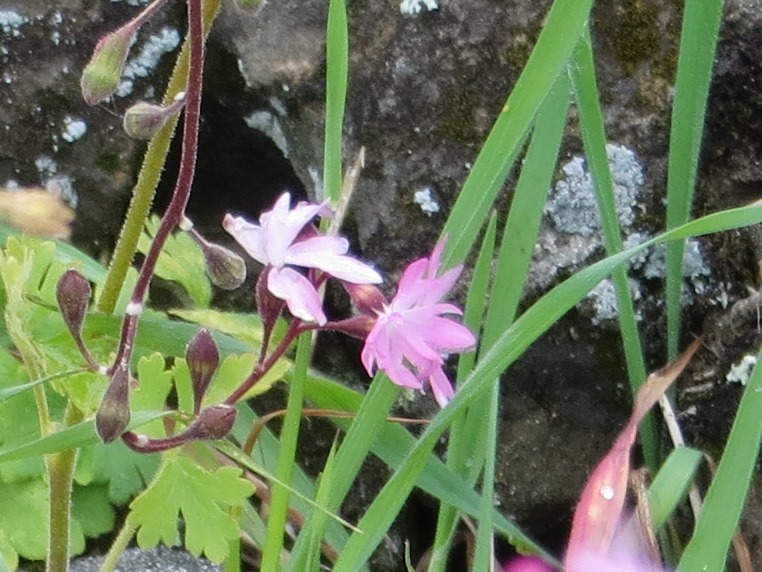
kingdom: Plantae
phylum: Tracheophyta
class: Magnoliopsida
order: Saxifragales
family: Saxifragaceae
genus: Lithophragma
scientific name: Lithophragma trifoliatum
